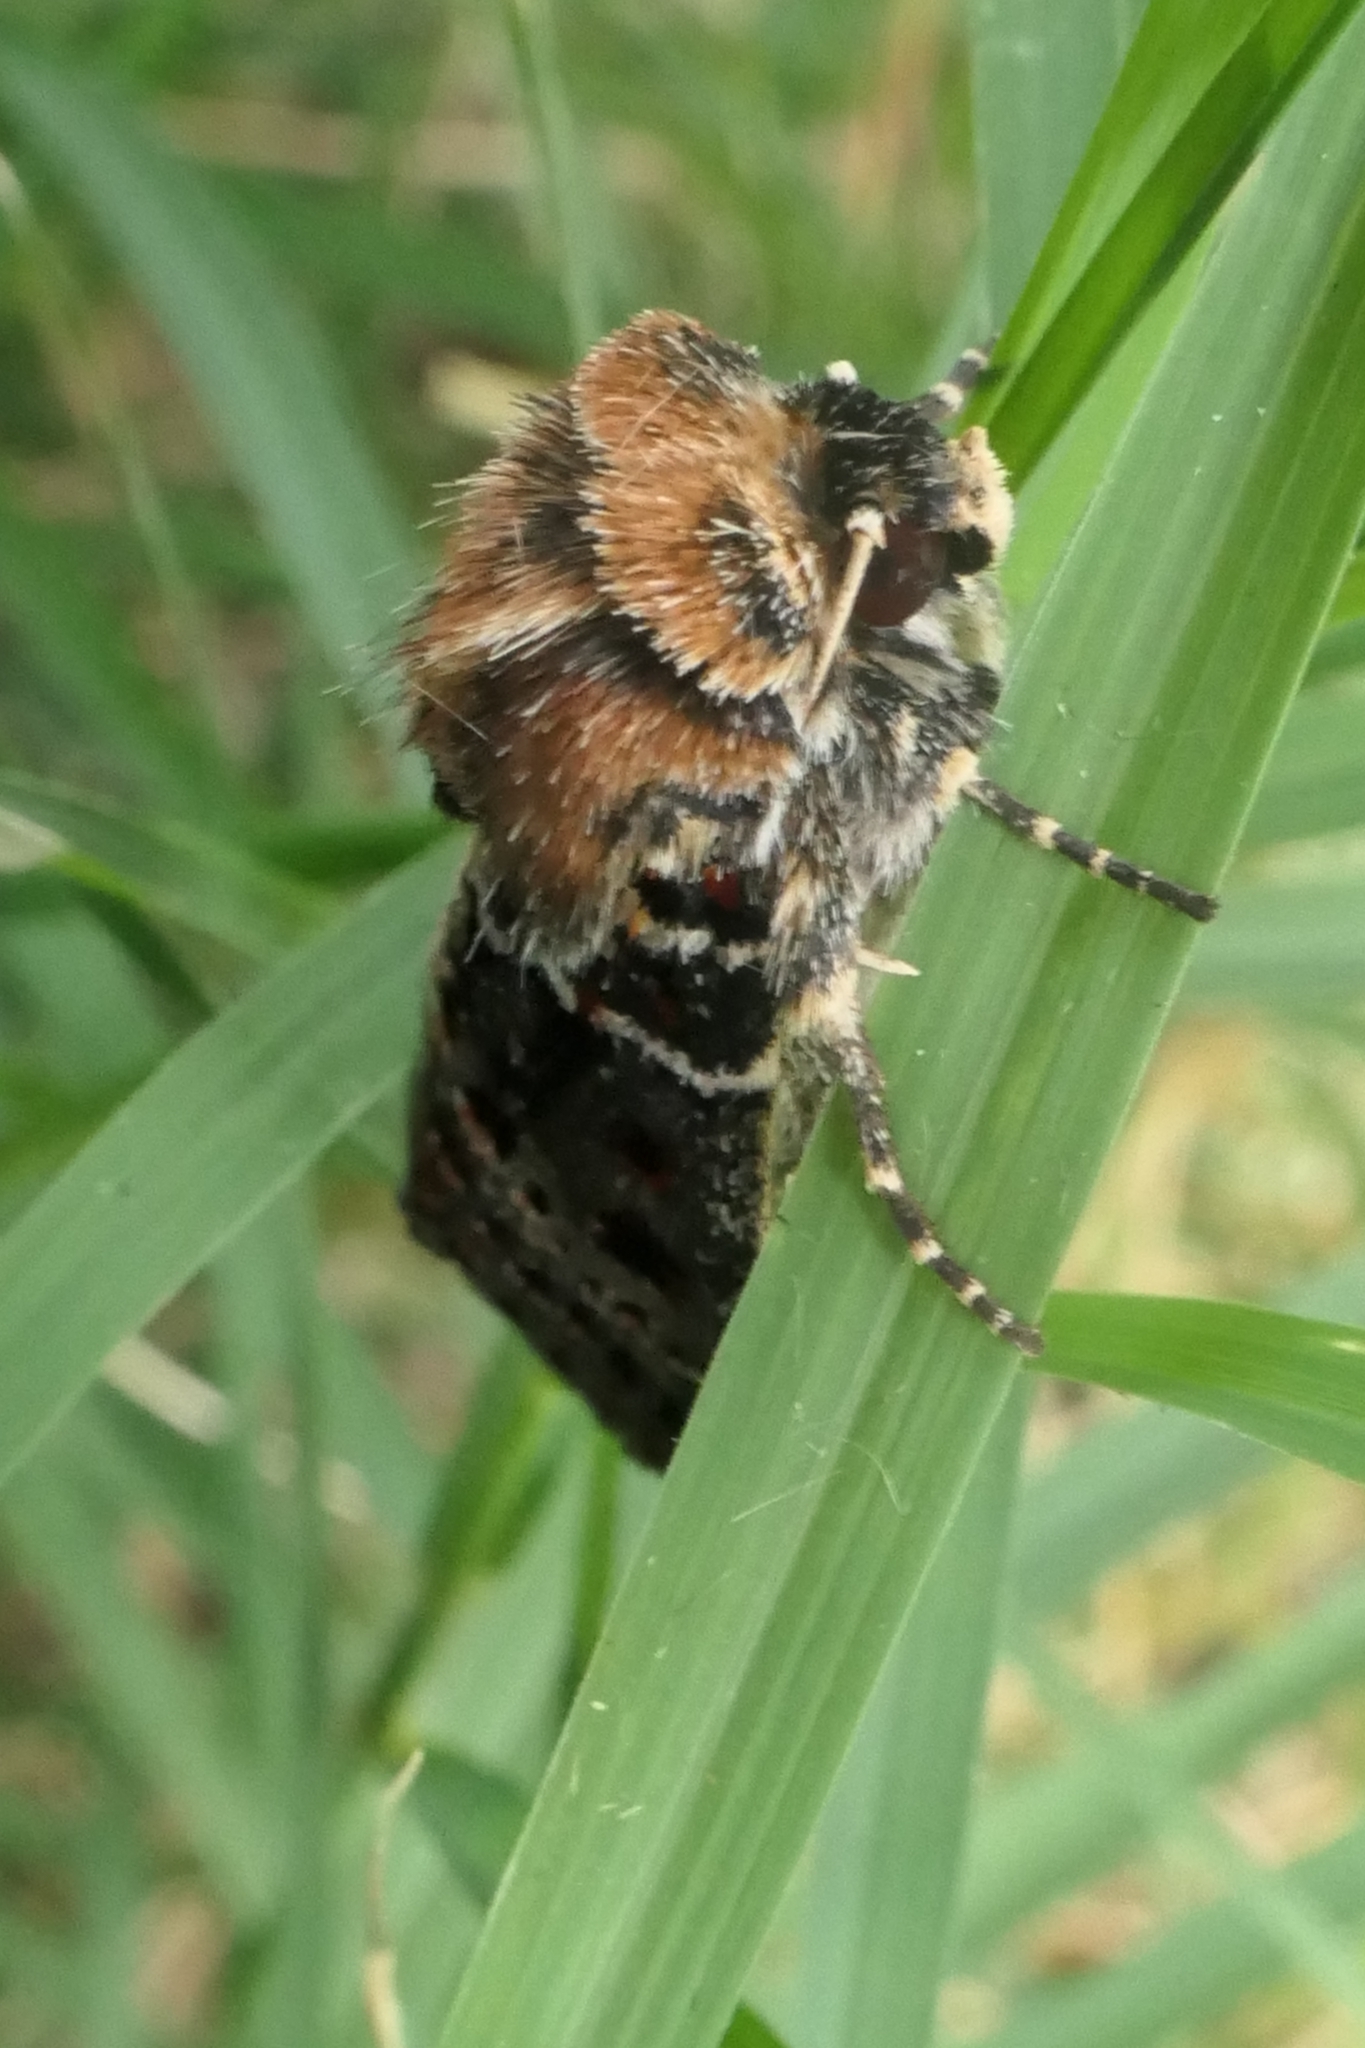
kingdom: Animalia
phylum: Arthropoda
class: Insecta
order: Lepidoptera
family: Noctuidae
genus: Proteuxoa
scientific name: Proteuxoa sanguinipuncta
